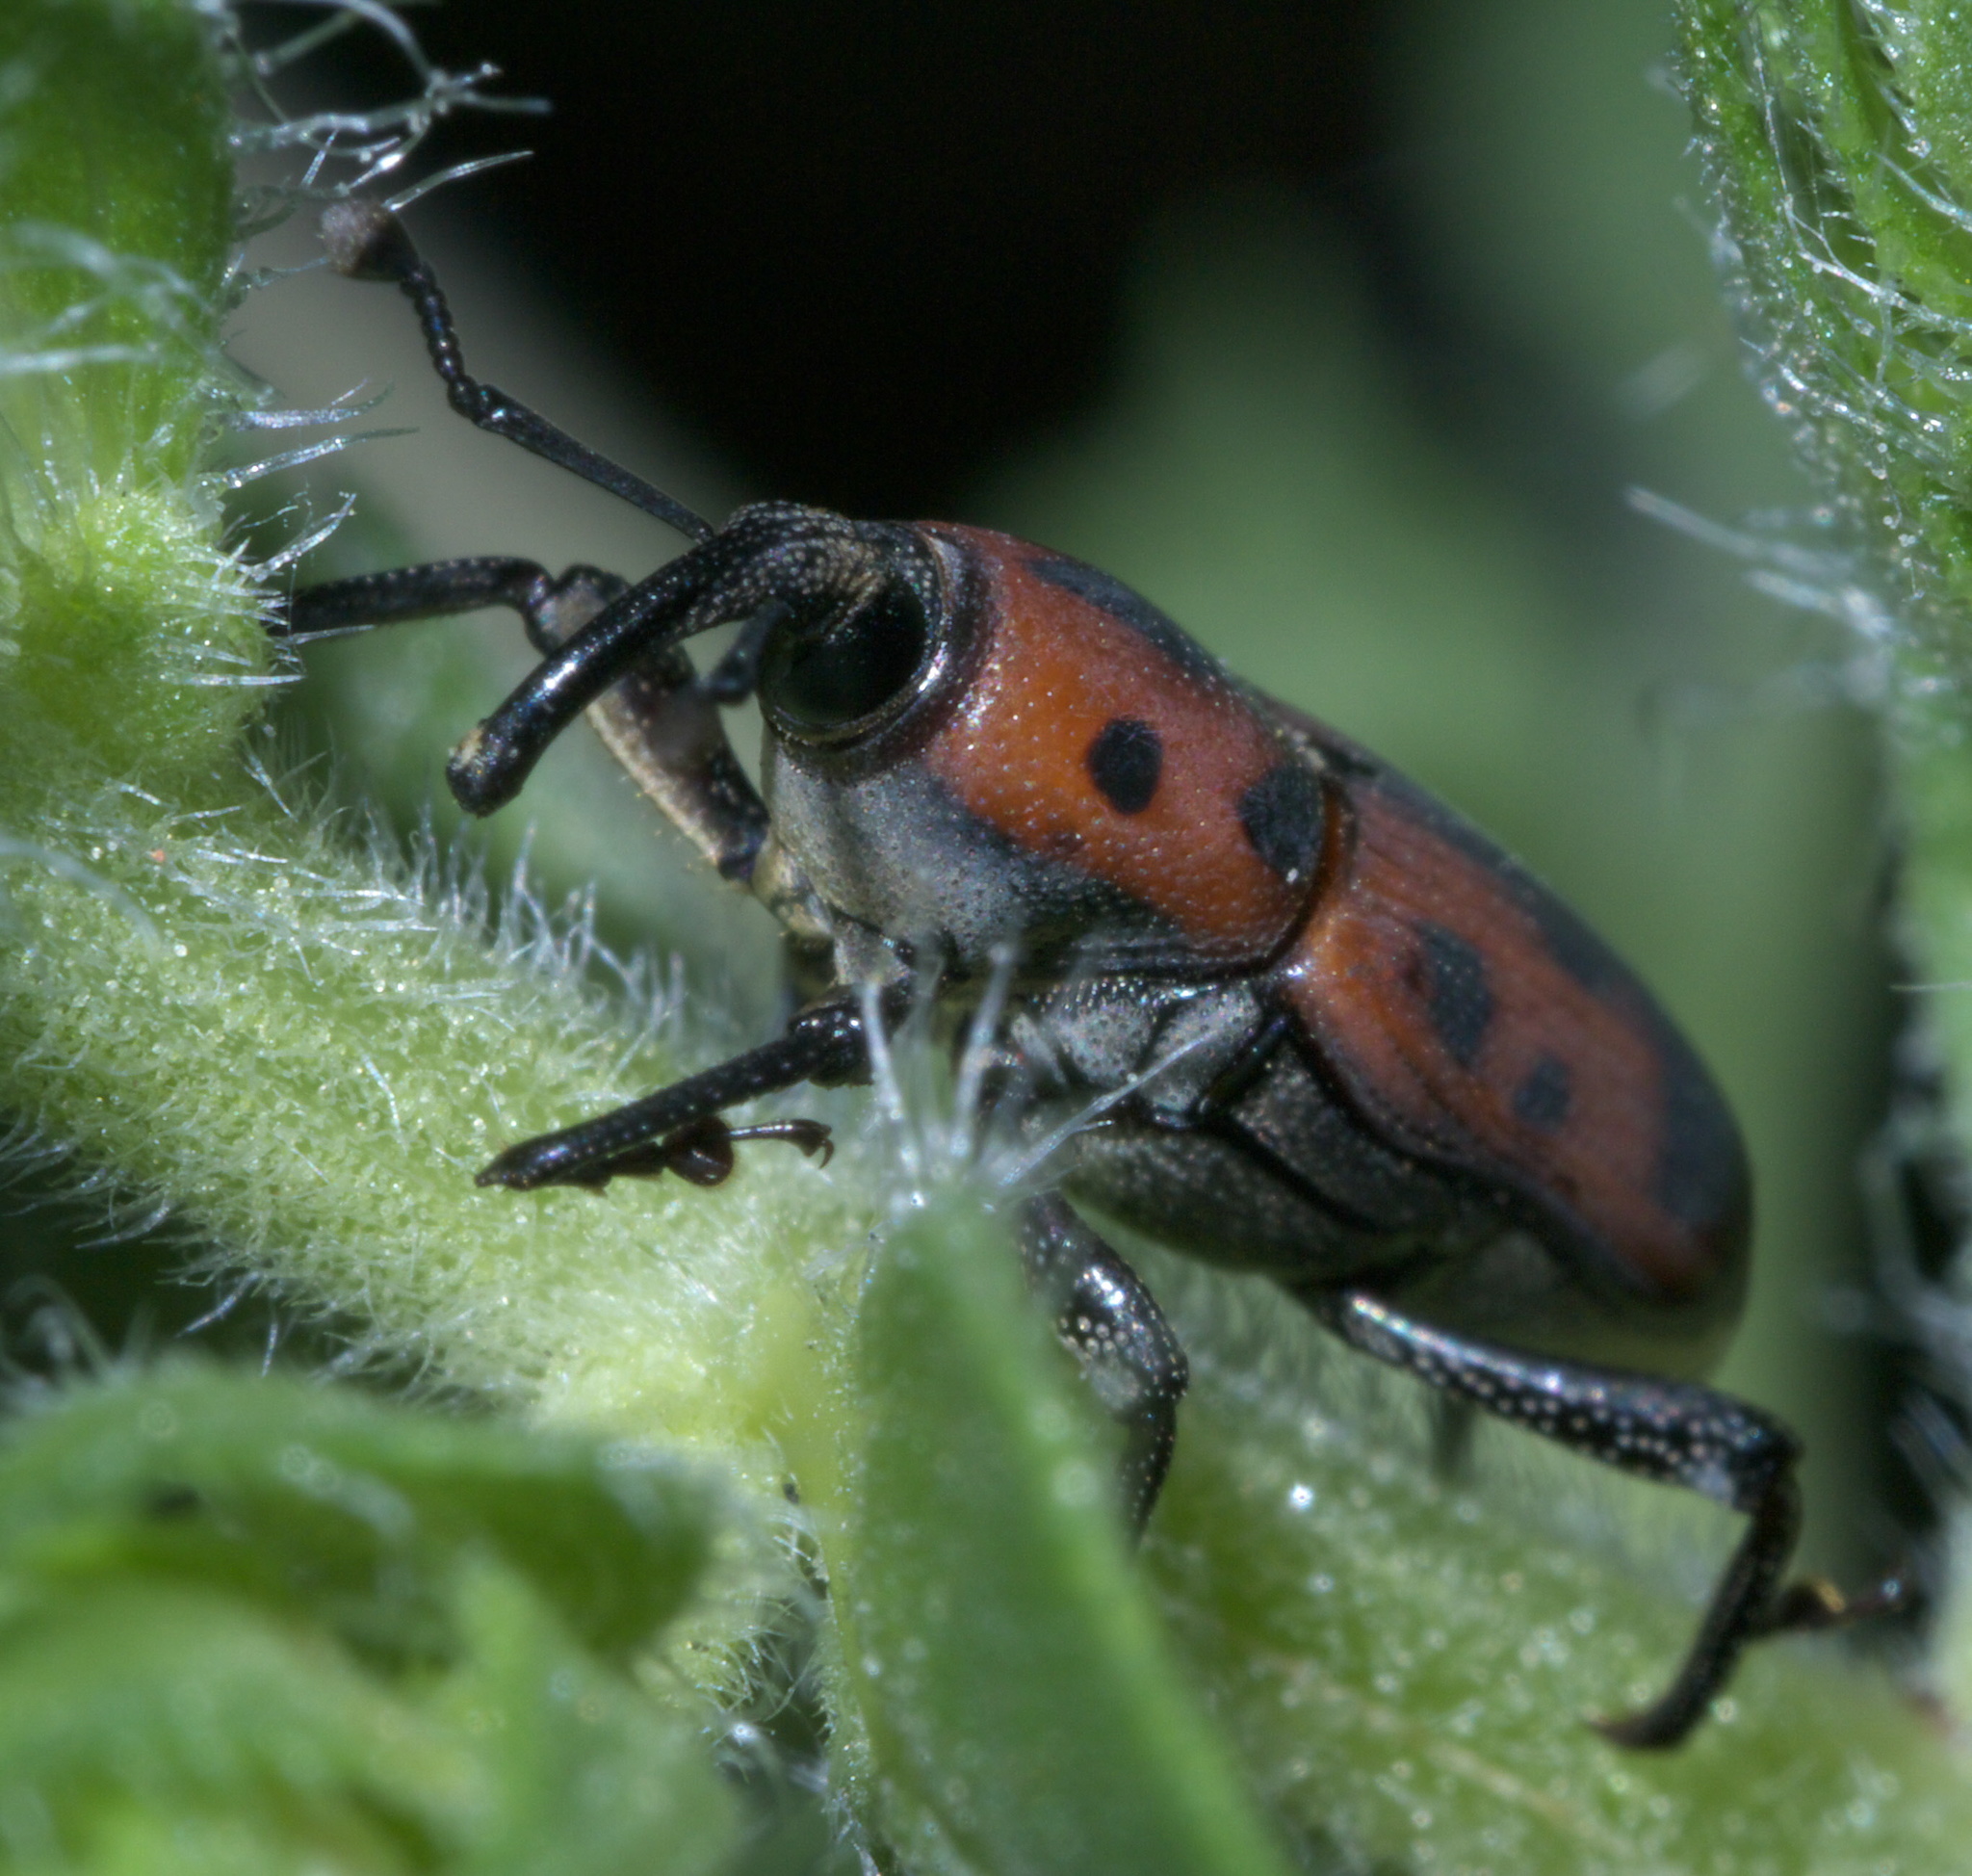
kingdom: Animalia
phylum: Arthropoda
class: Insecta
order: Coleoptera
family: Dryophthoridae
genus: Rhodobaenus
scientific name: Rhodobaenus quinquepunctatus
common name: Cocklebur weevil
